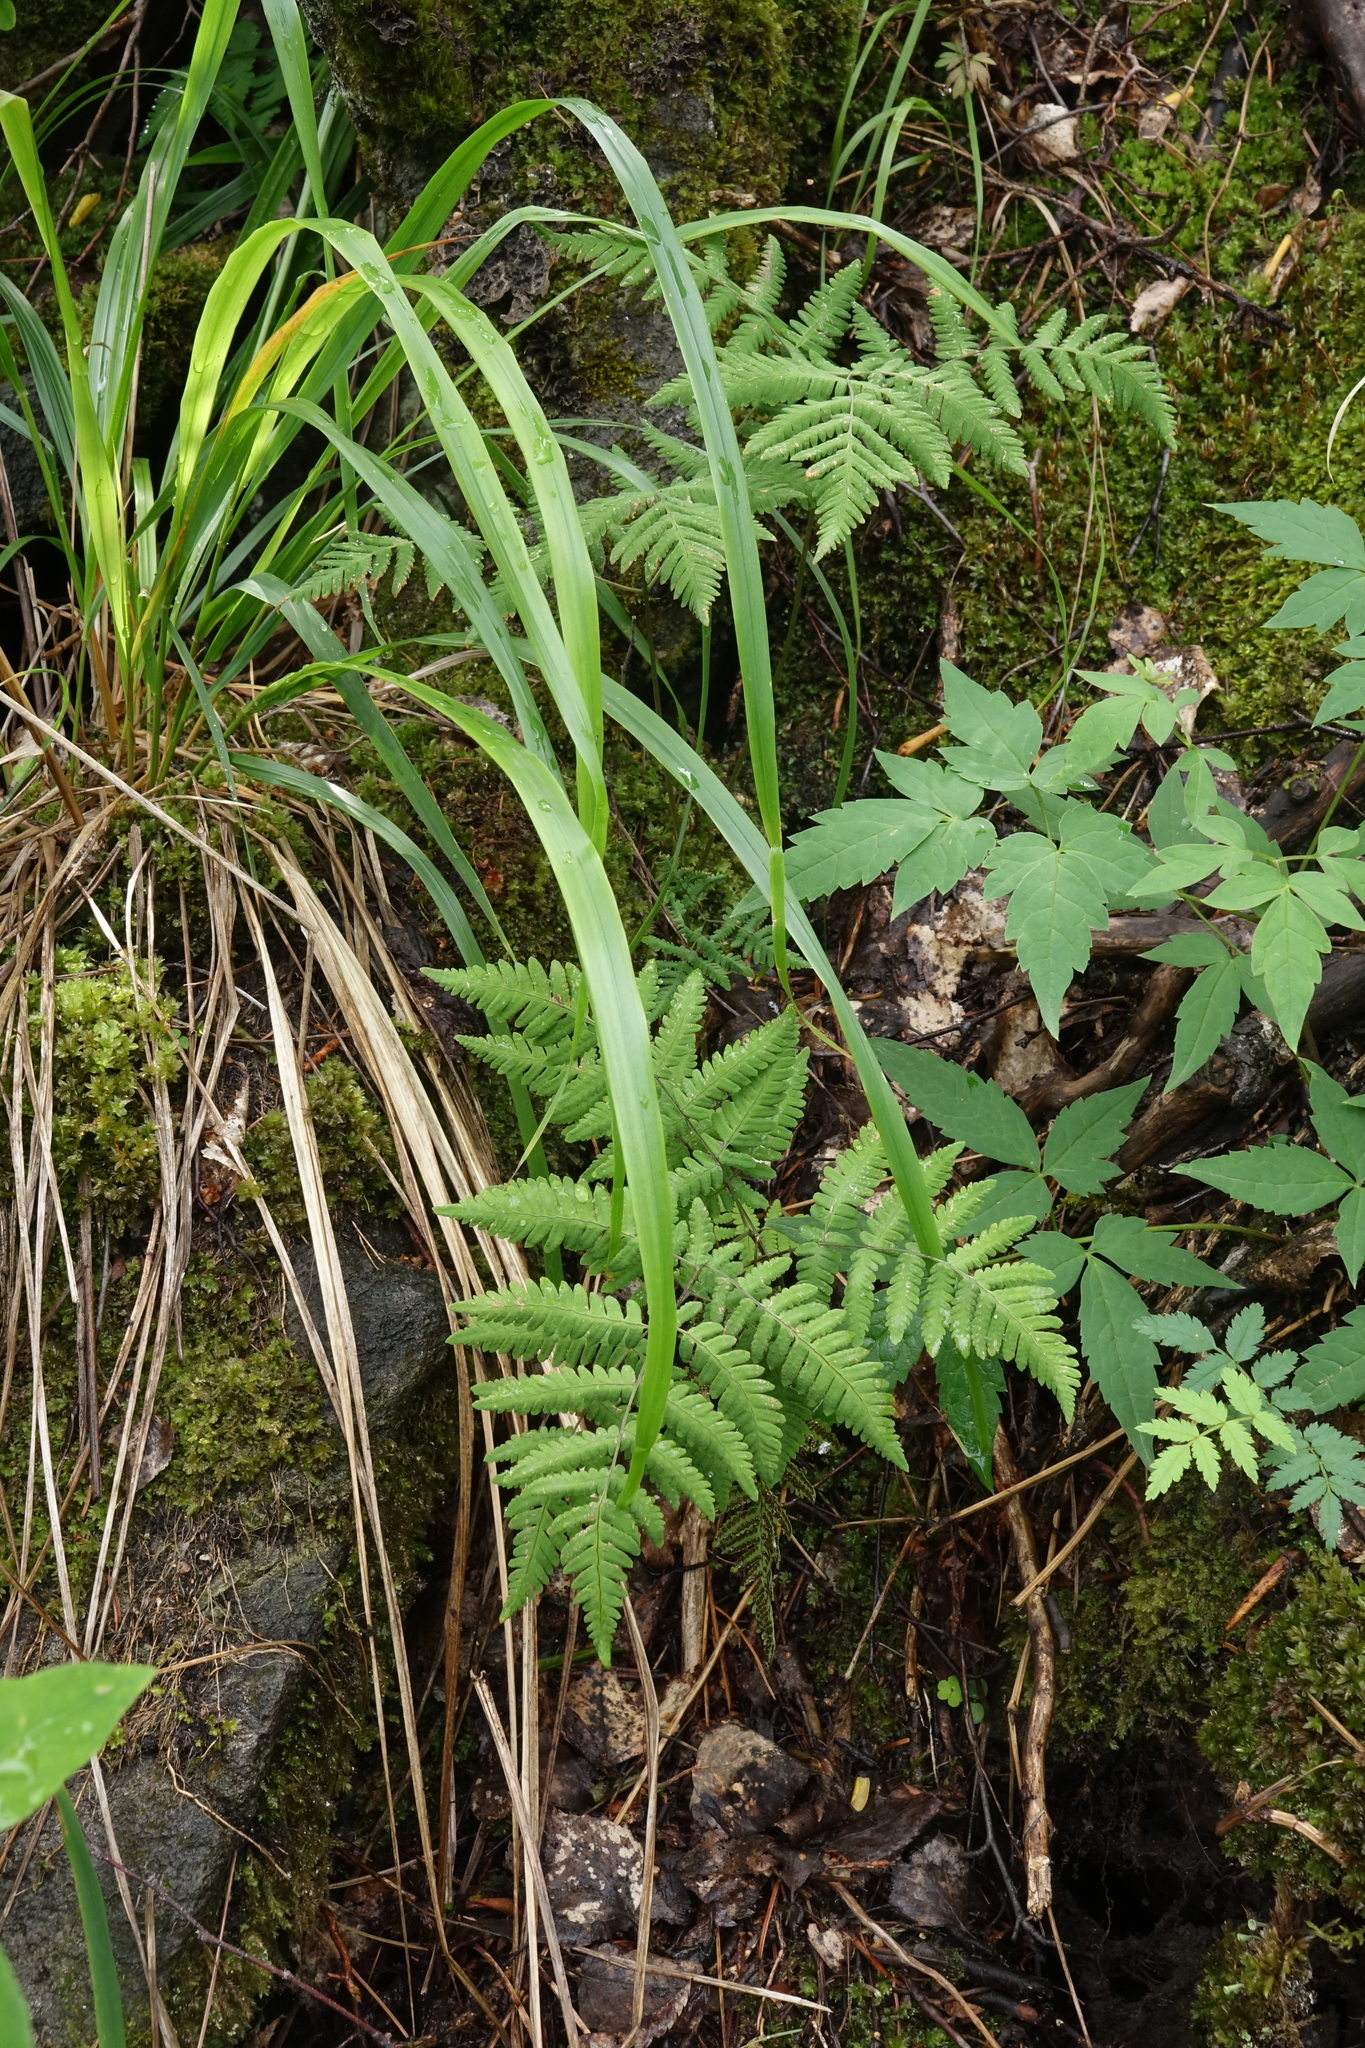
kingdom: Plantae
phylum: Tracheophyta
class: Polypodiopsida
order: Polypodiales
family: Cystopteridaceae
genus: Gymnocarpium
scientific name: Gymnocarpium dryopteris
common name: Oak fern
